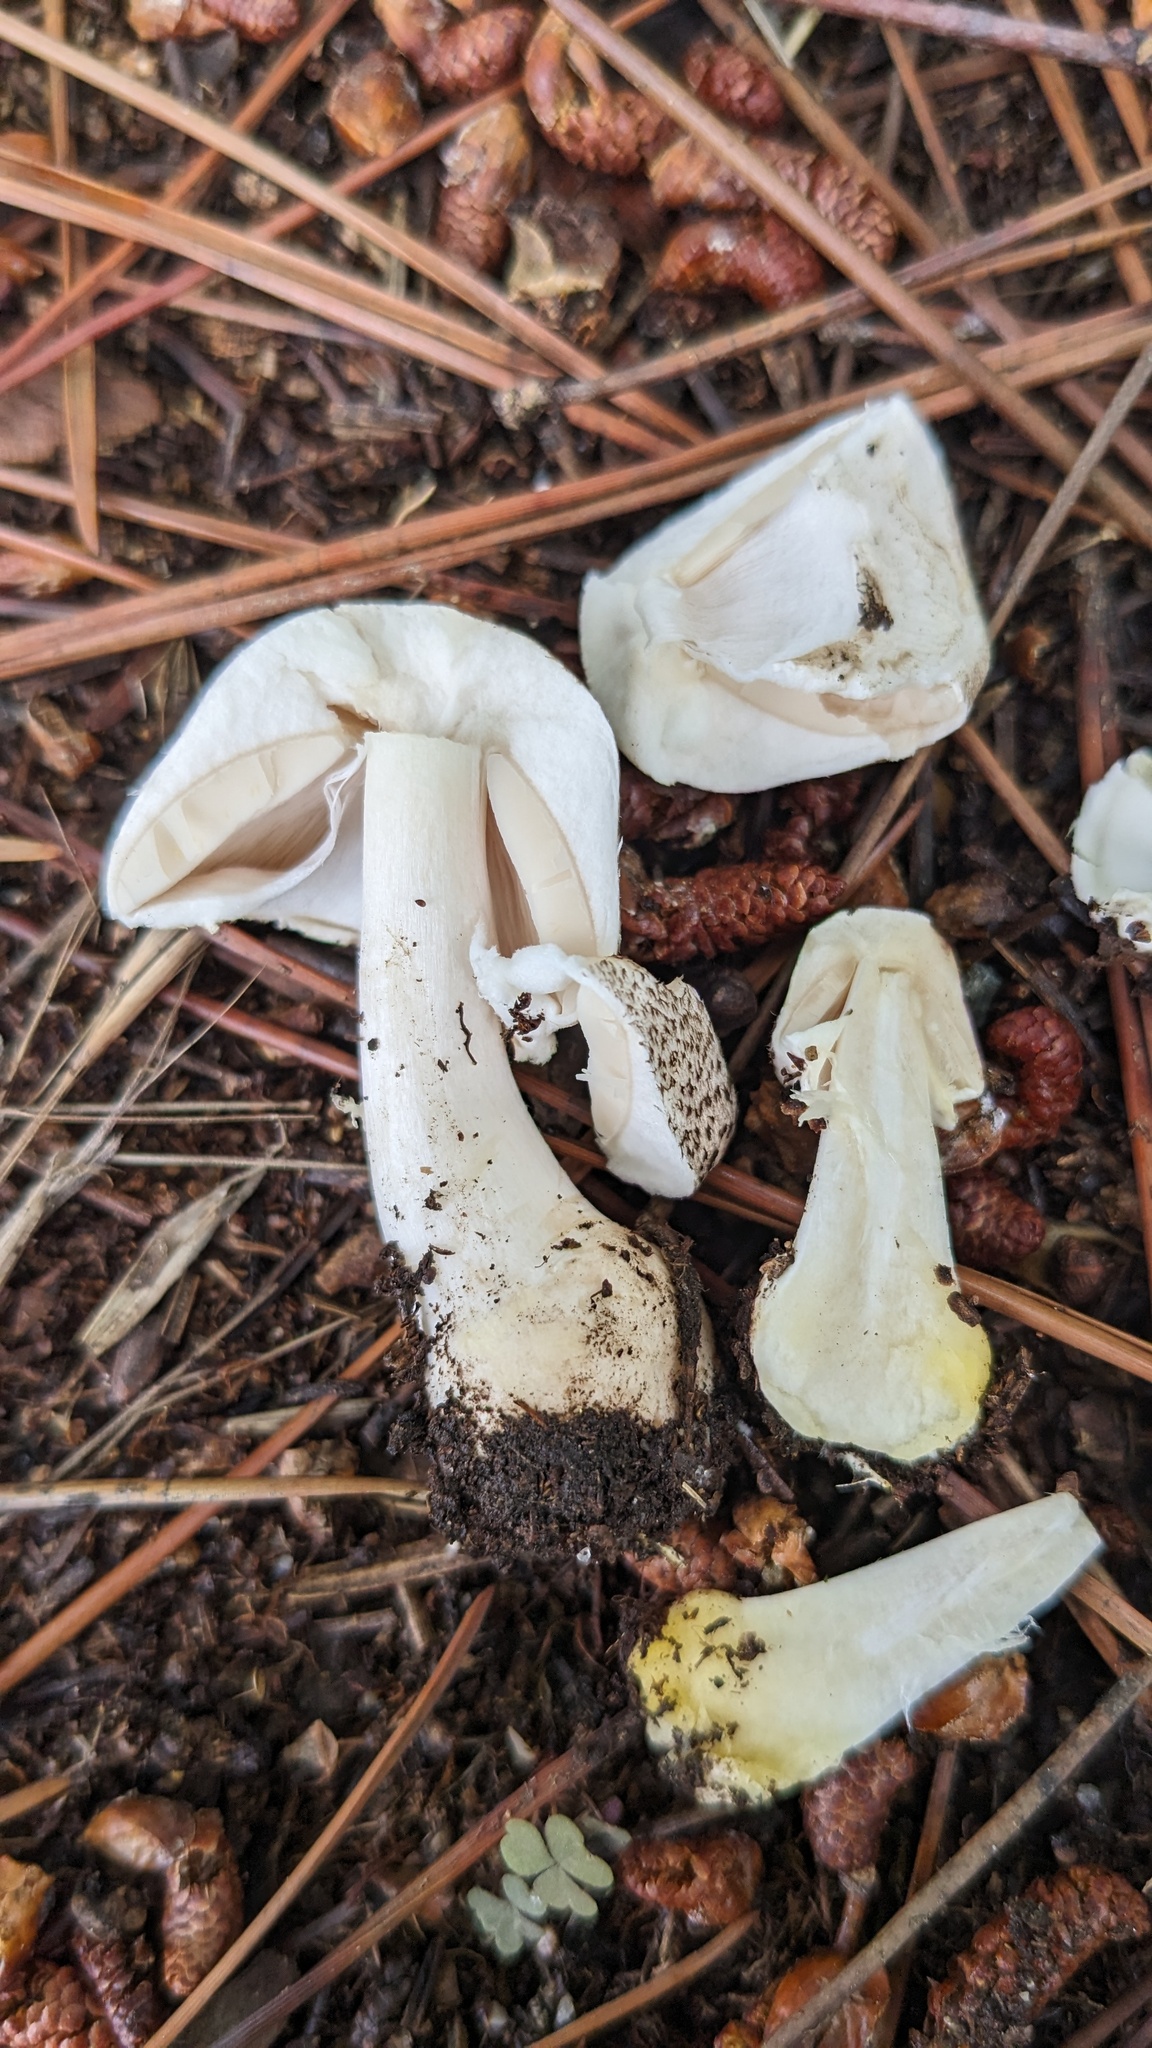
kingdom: Fungi
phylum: Basidiomycota
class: Agaricomycetes
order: Agaricales
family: Agaricaceae
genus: Agaricus
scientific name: Agaricus moelleri
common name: Inky mushroom
